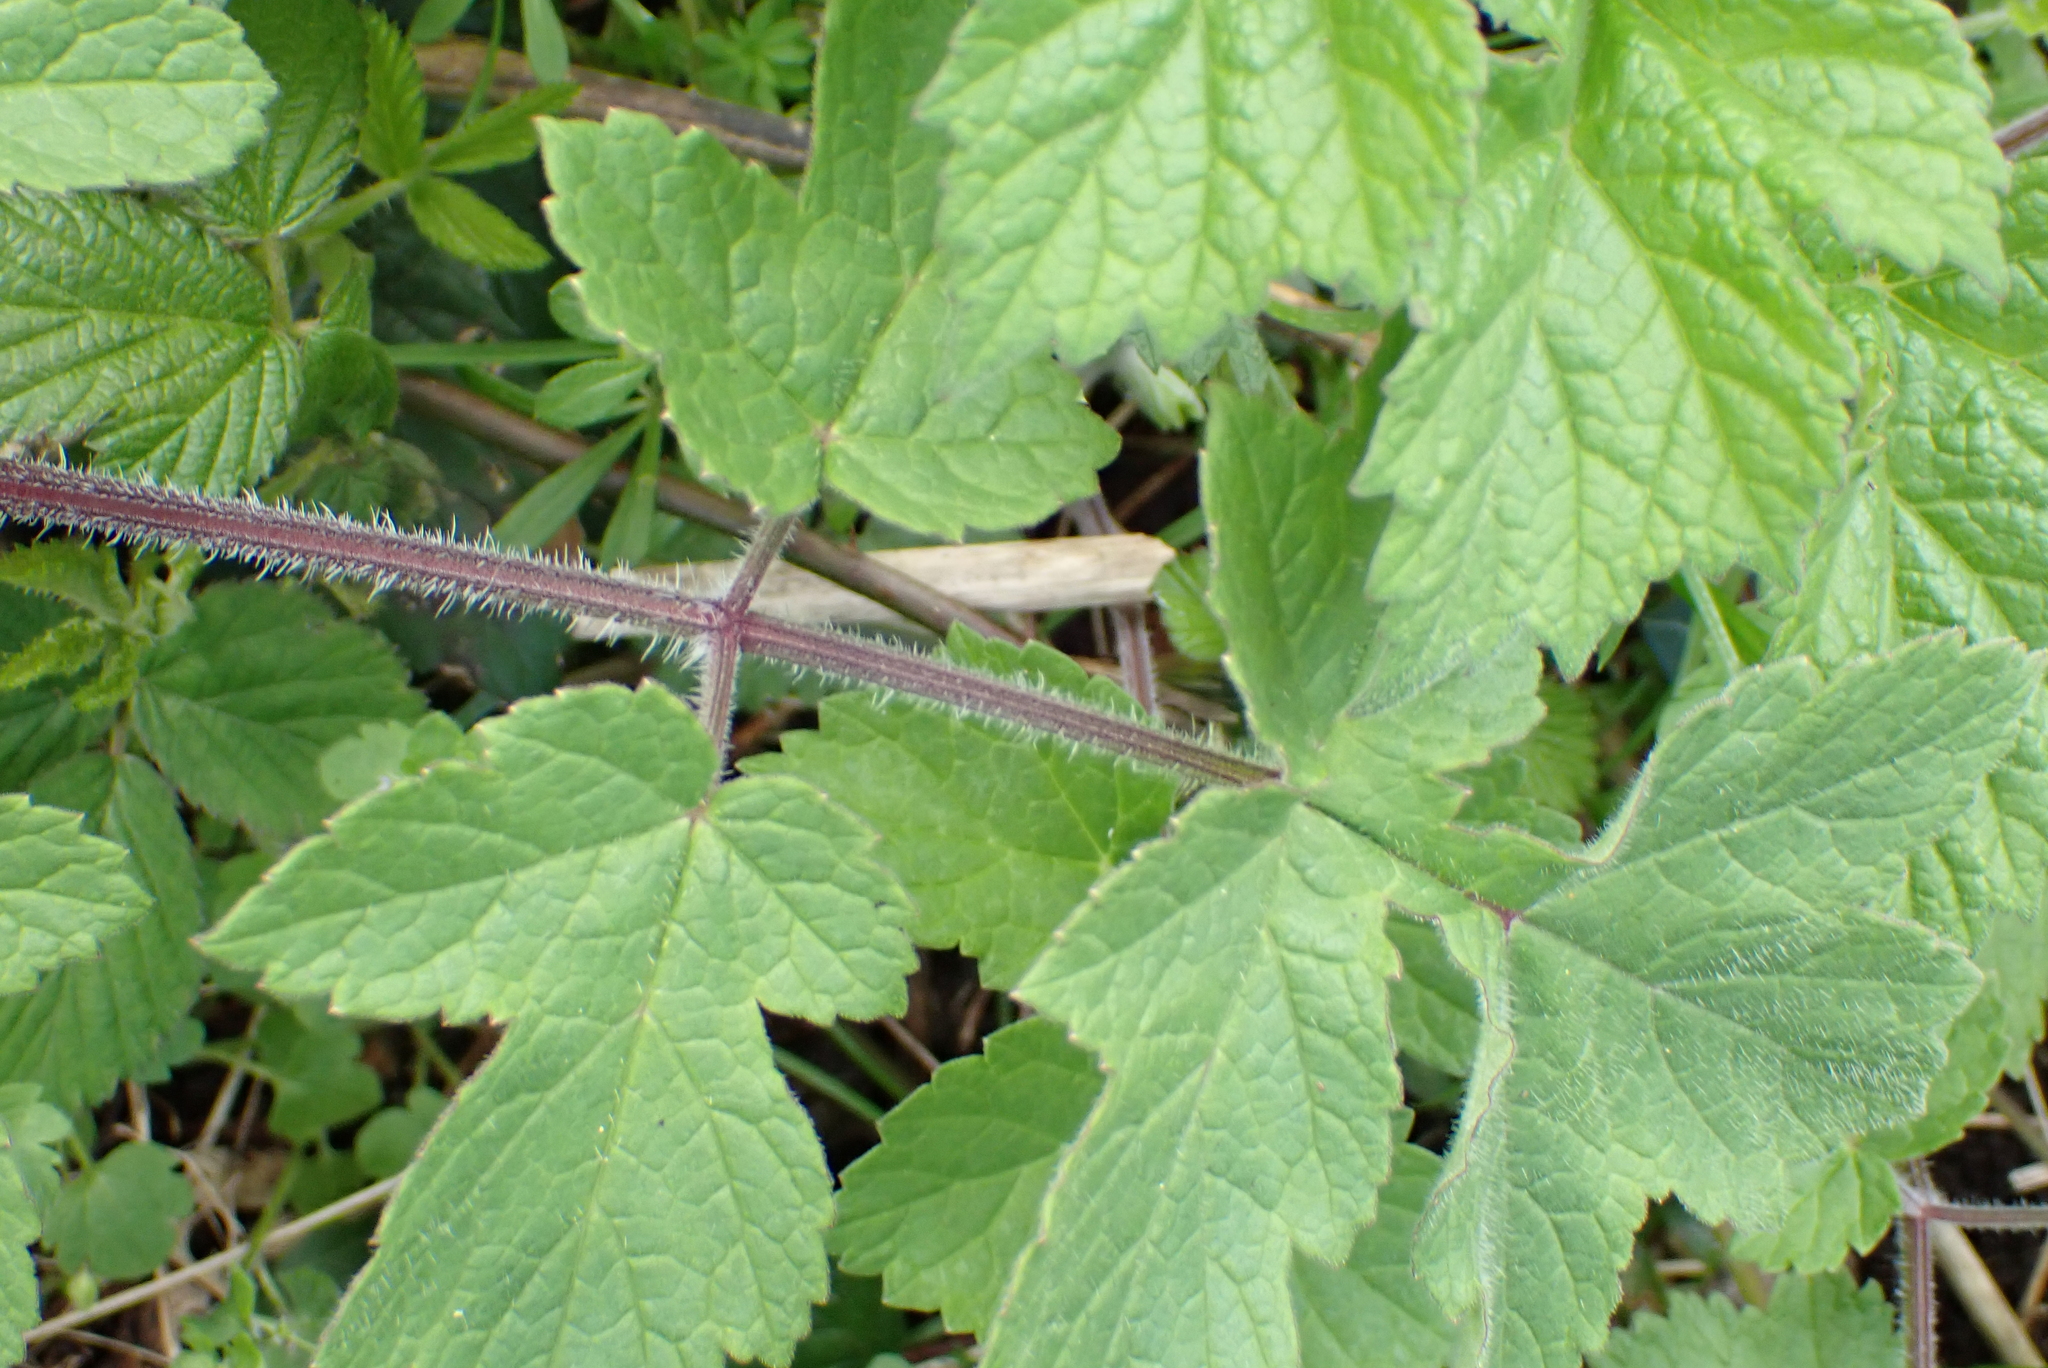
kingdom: Plantae
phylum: Tracheophyta
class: Magnoliopsida
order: Apiales
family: Apiaceae
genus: Heracleum
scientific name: Heracleum sphondylium
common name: Hogweed
